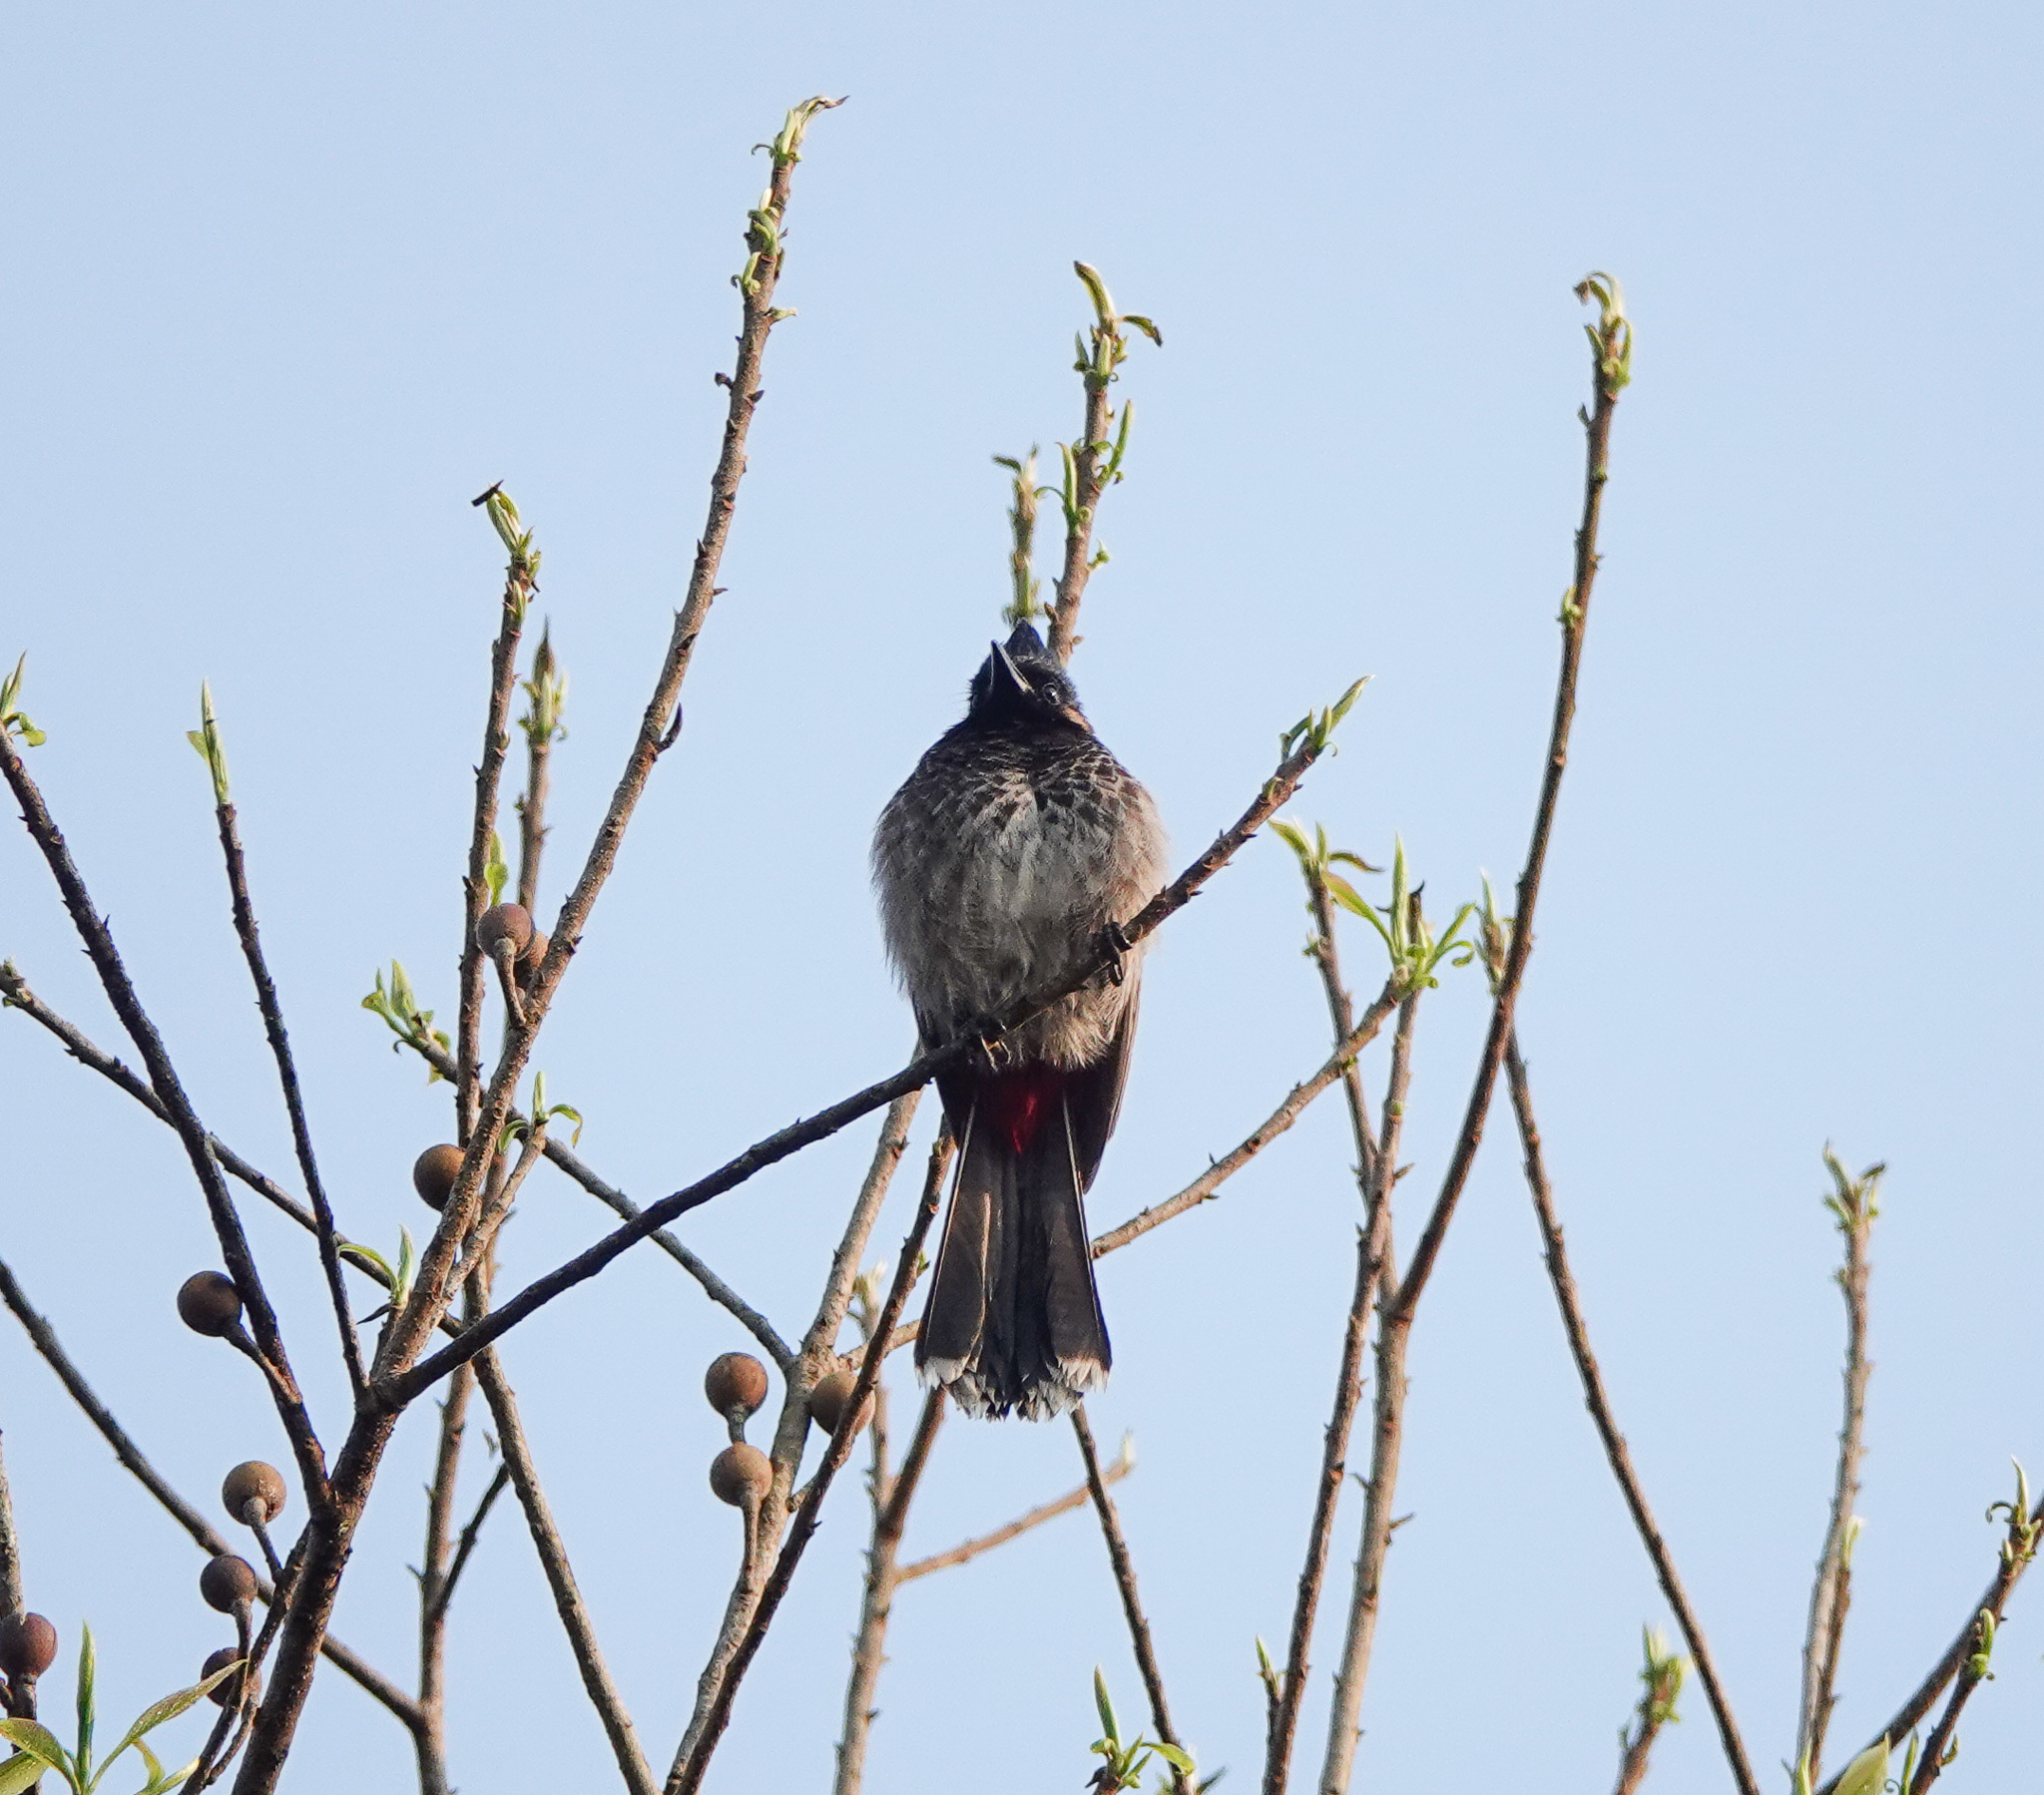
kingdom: Animalia
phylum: Chordata
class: Aves
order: Passeriformes
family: Pycnonotidae
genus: Pycnonotus
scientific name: Pycnonotus cafer
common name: Red-vented bulbul
